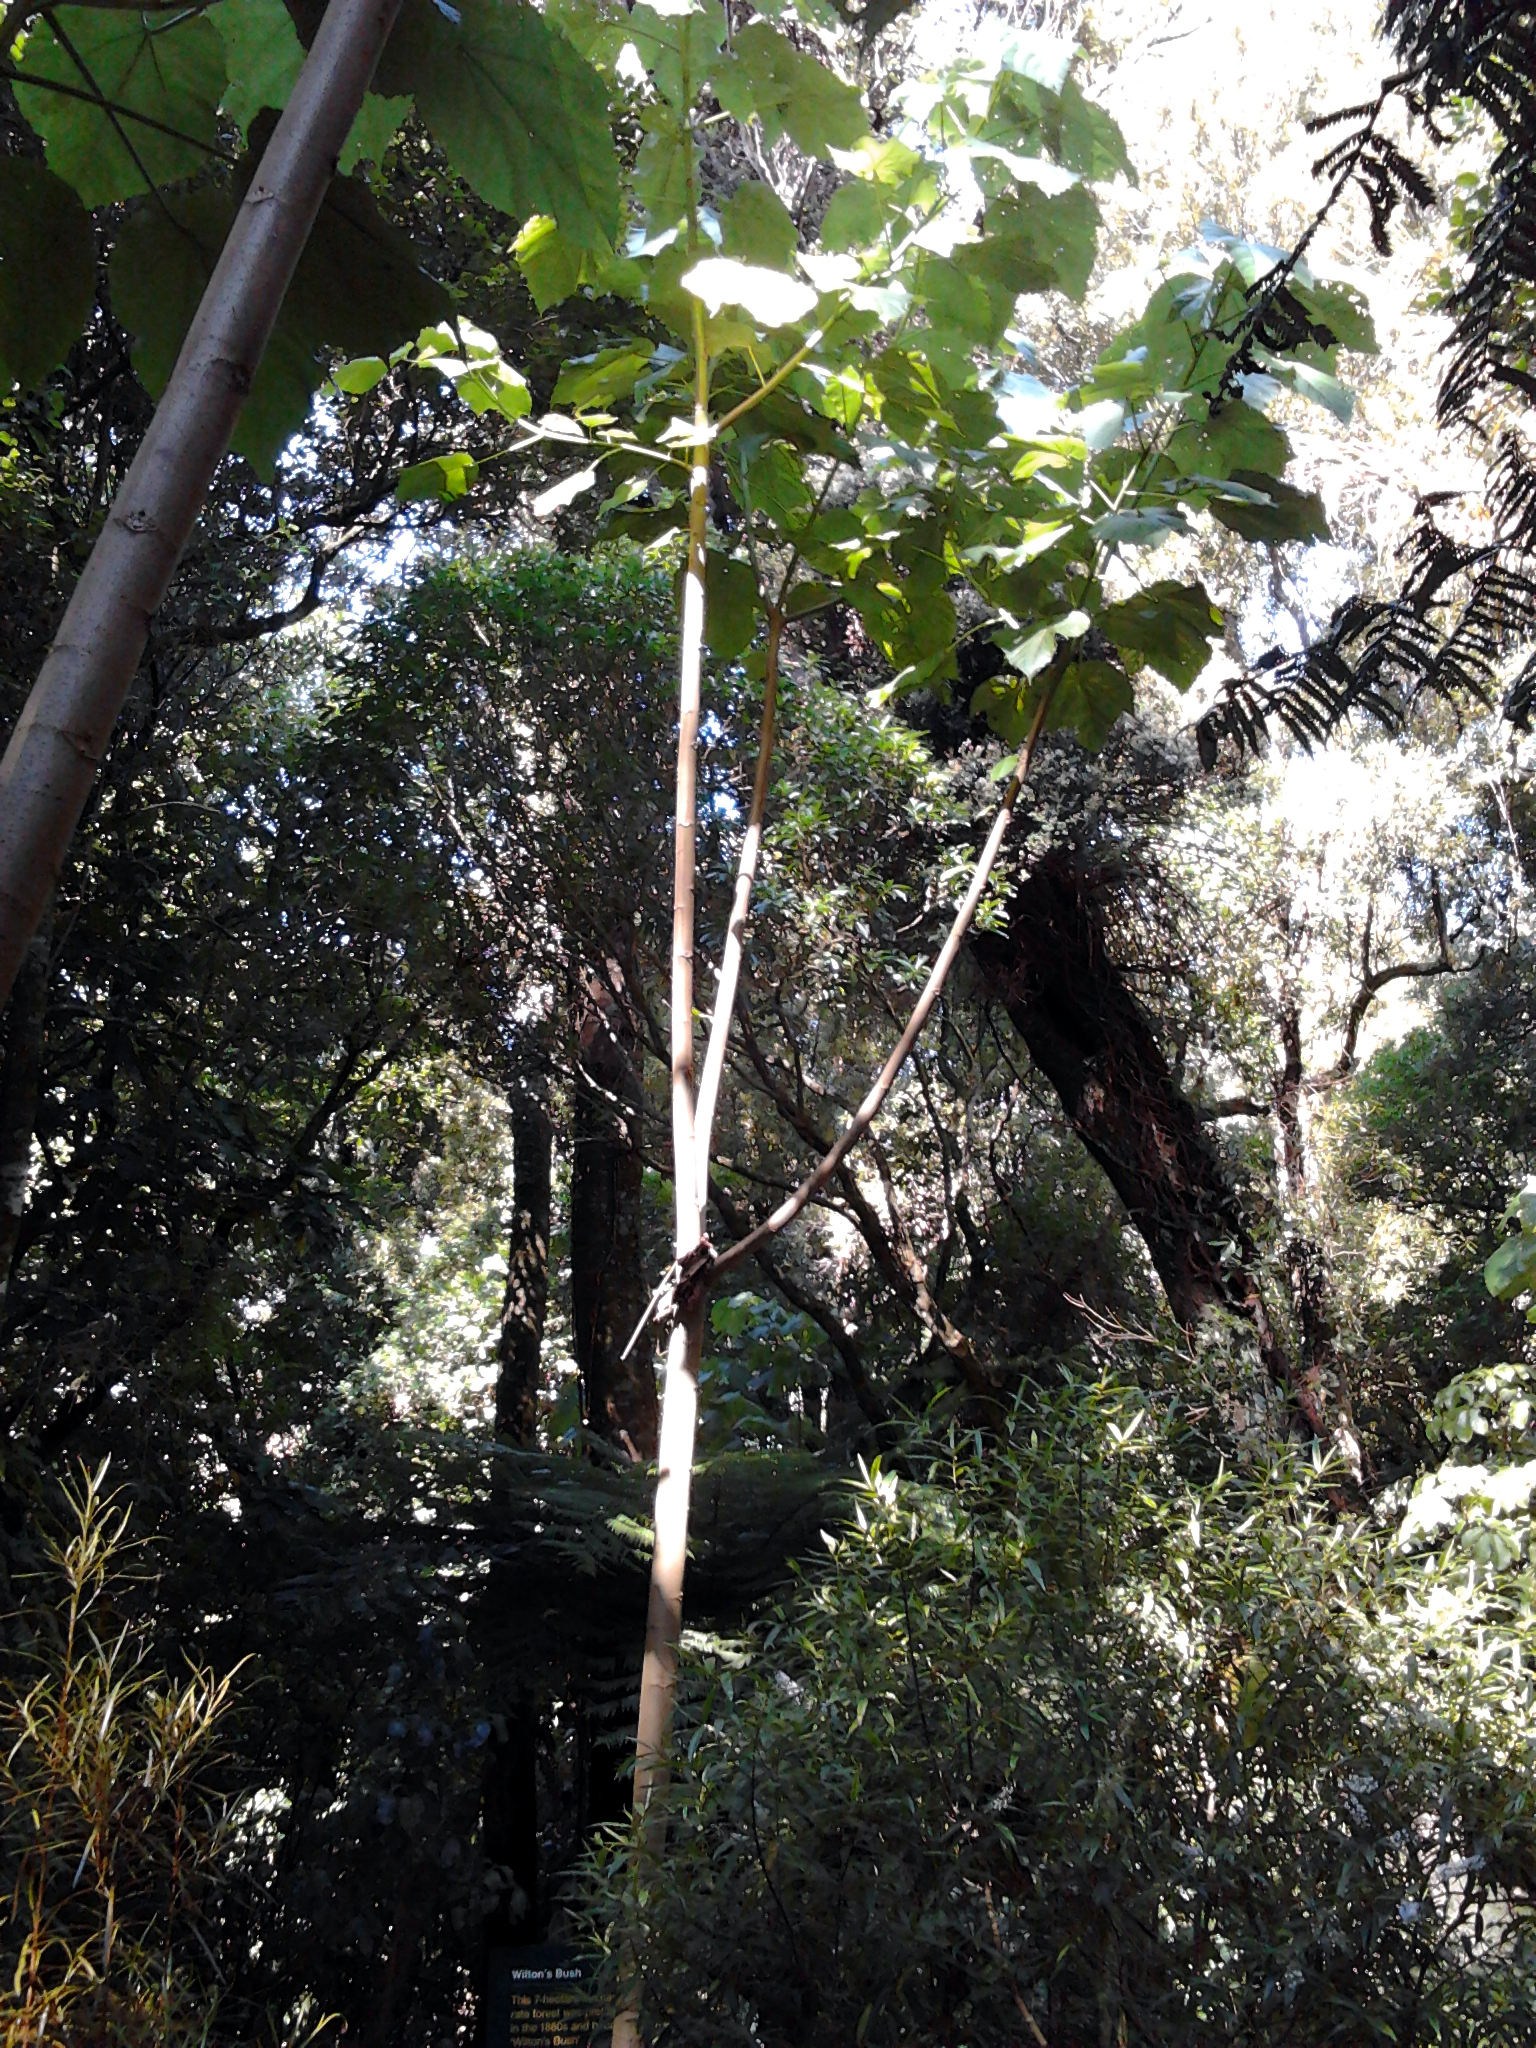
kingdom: Plantae
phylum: Tracheophyta
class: Magnoliopsida
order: Malvales
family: Malvaceae
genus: Entelea
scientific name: Entelea arborescens
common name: New zealand-mulberry
